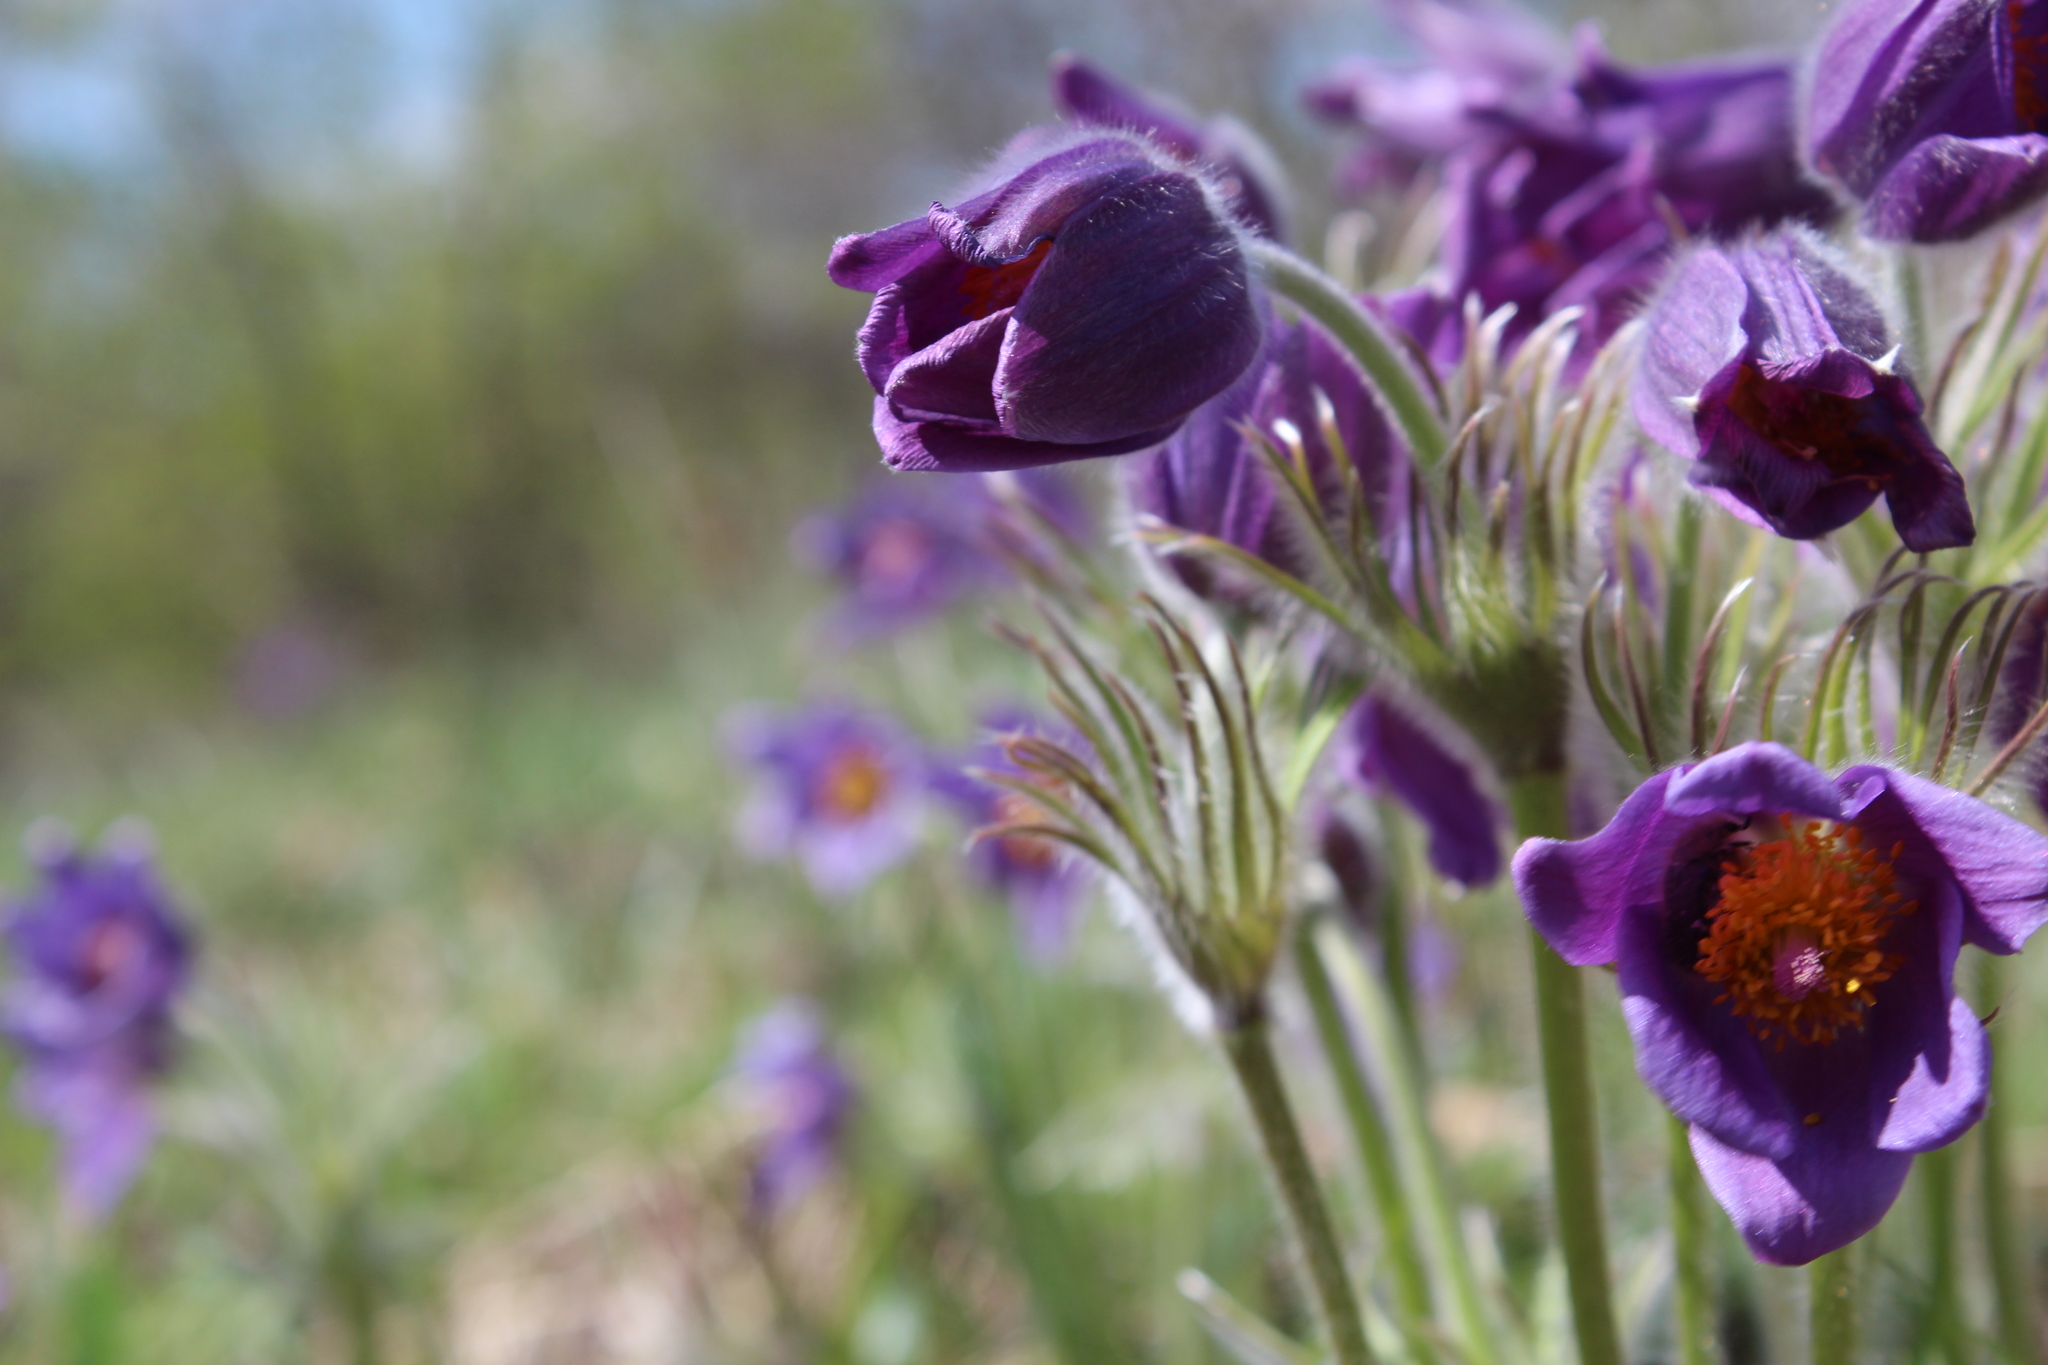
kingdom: Plantae
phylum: Tracheophyta
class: Magnoliopsida
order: Ranunculales
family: Ranunculaceae
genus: Pulsatilla
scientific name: Pulsatilla patens
